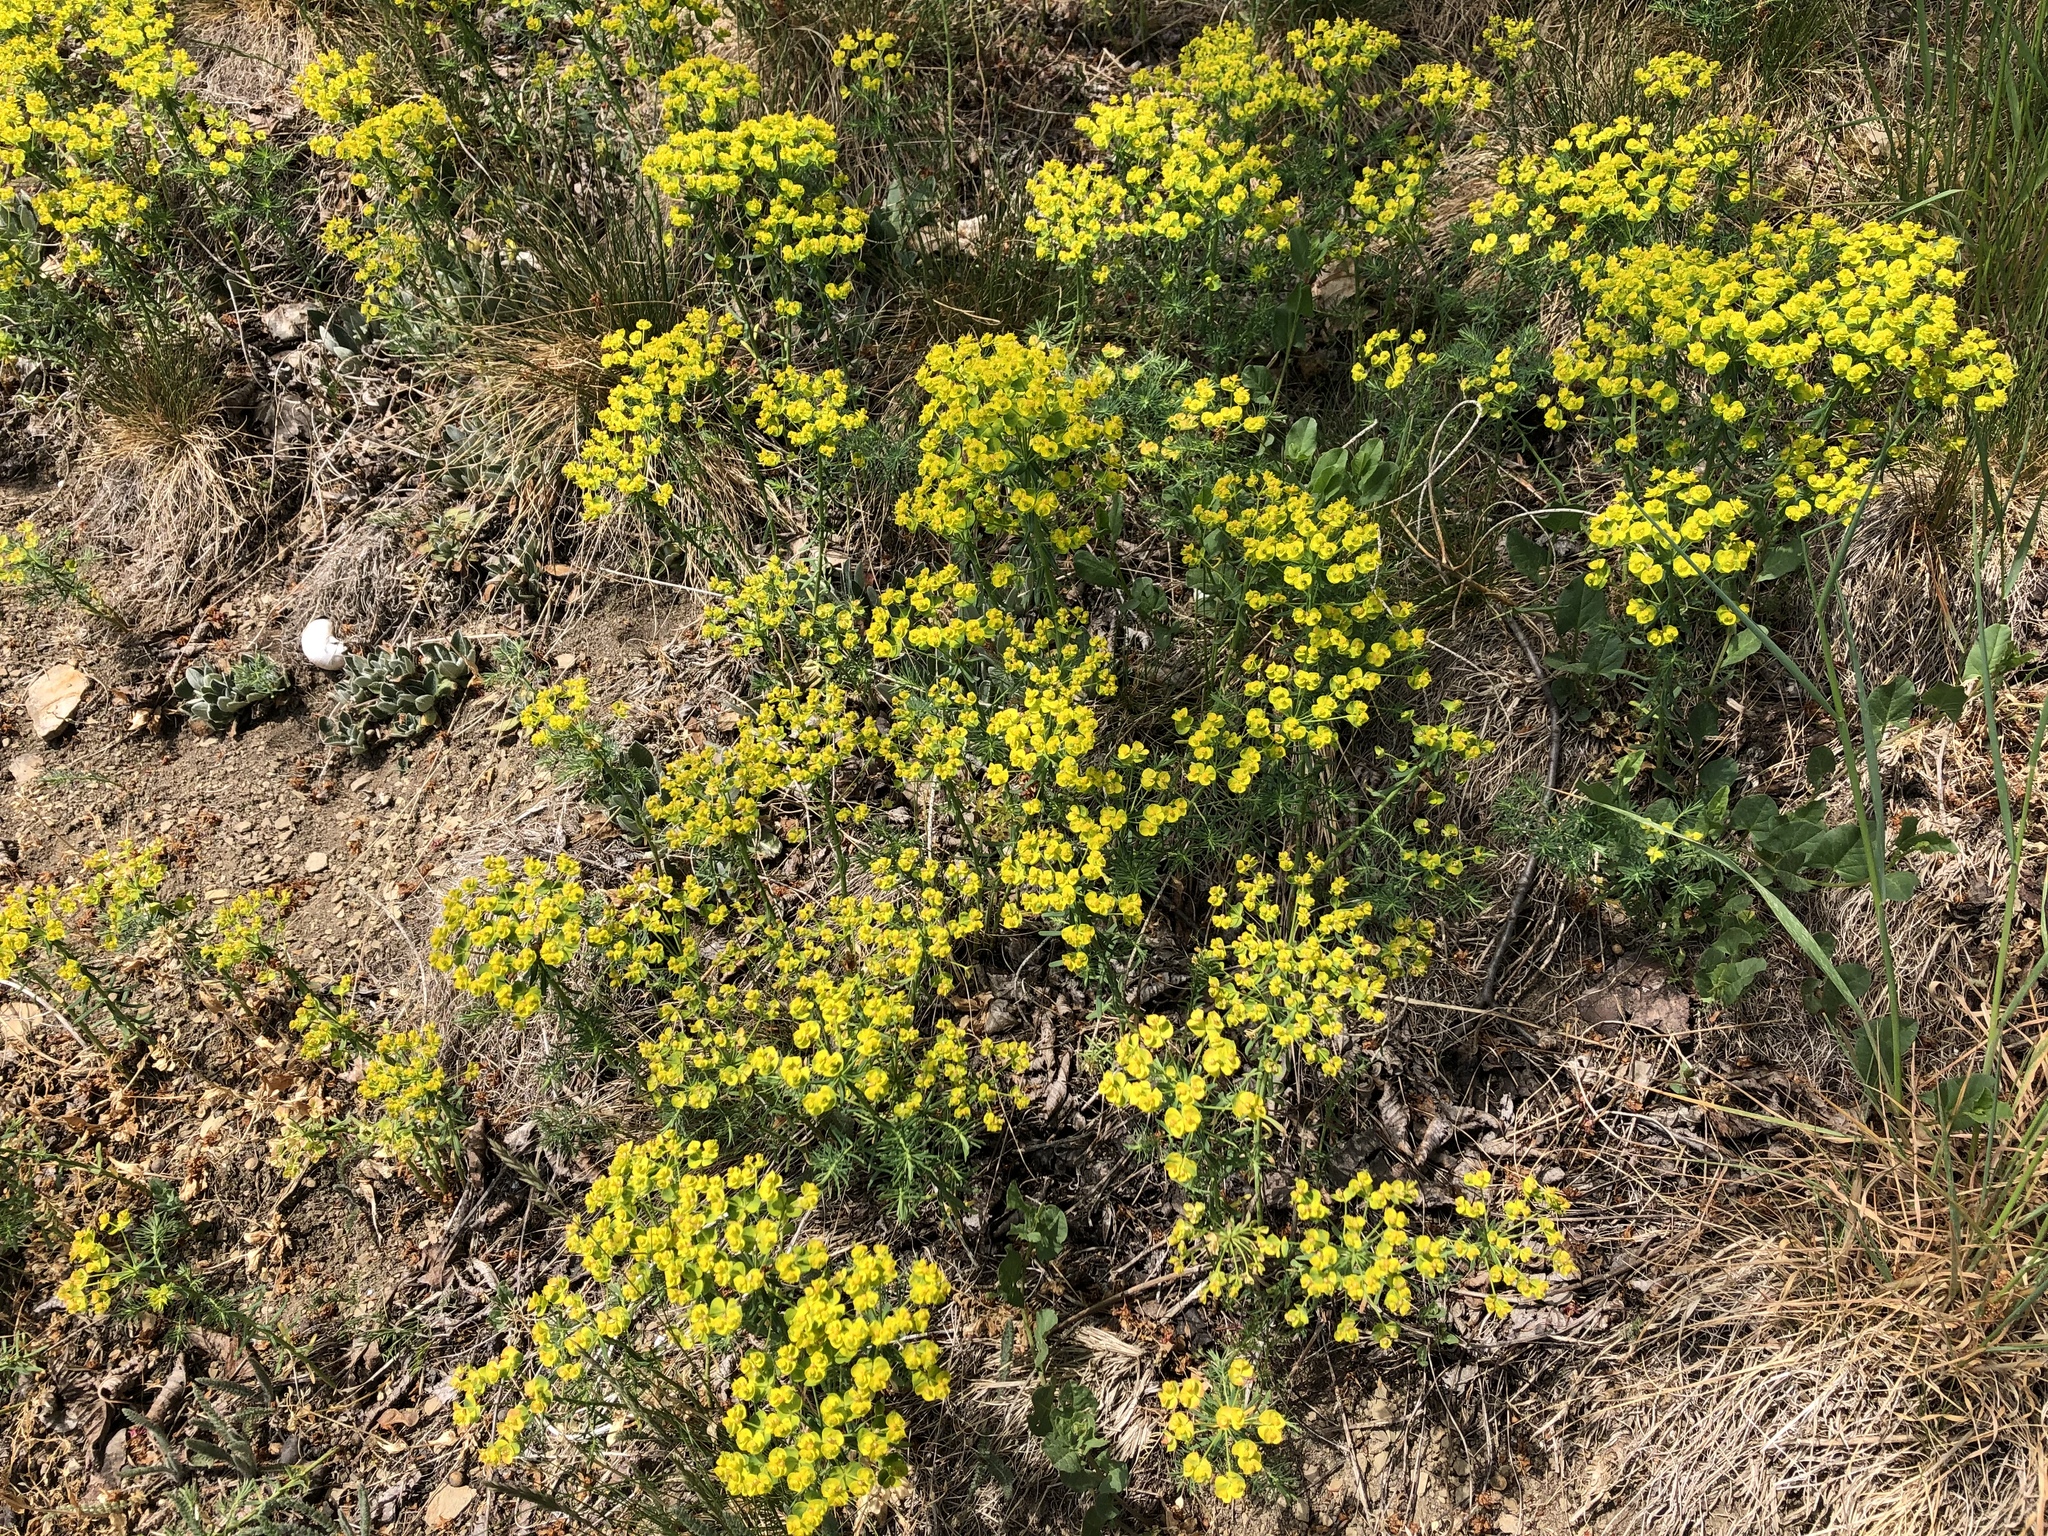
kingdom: Plantae
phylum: Tracheophyta
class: Magnoliopsida
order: Malpighiales
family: Euphorbiaceae
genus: Euphorbia
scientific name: Euphorbia cyparissias
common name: Cypress spurge
